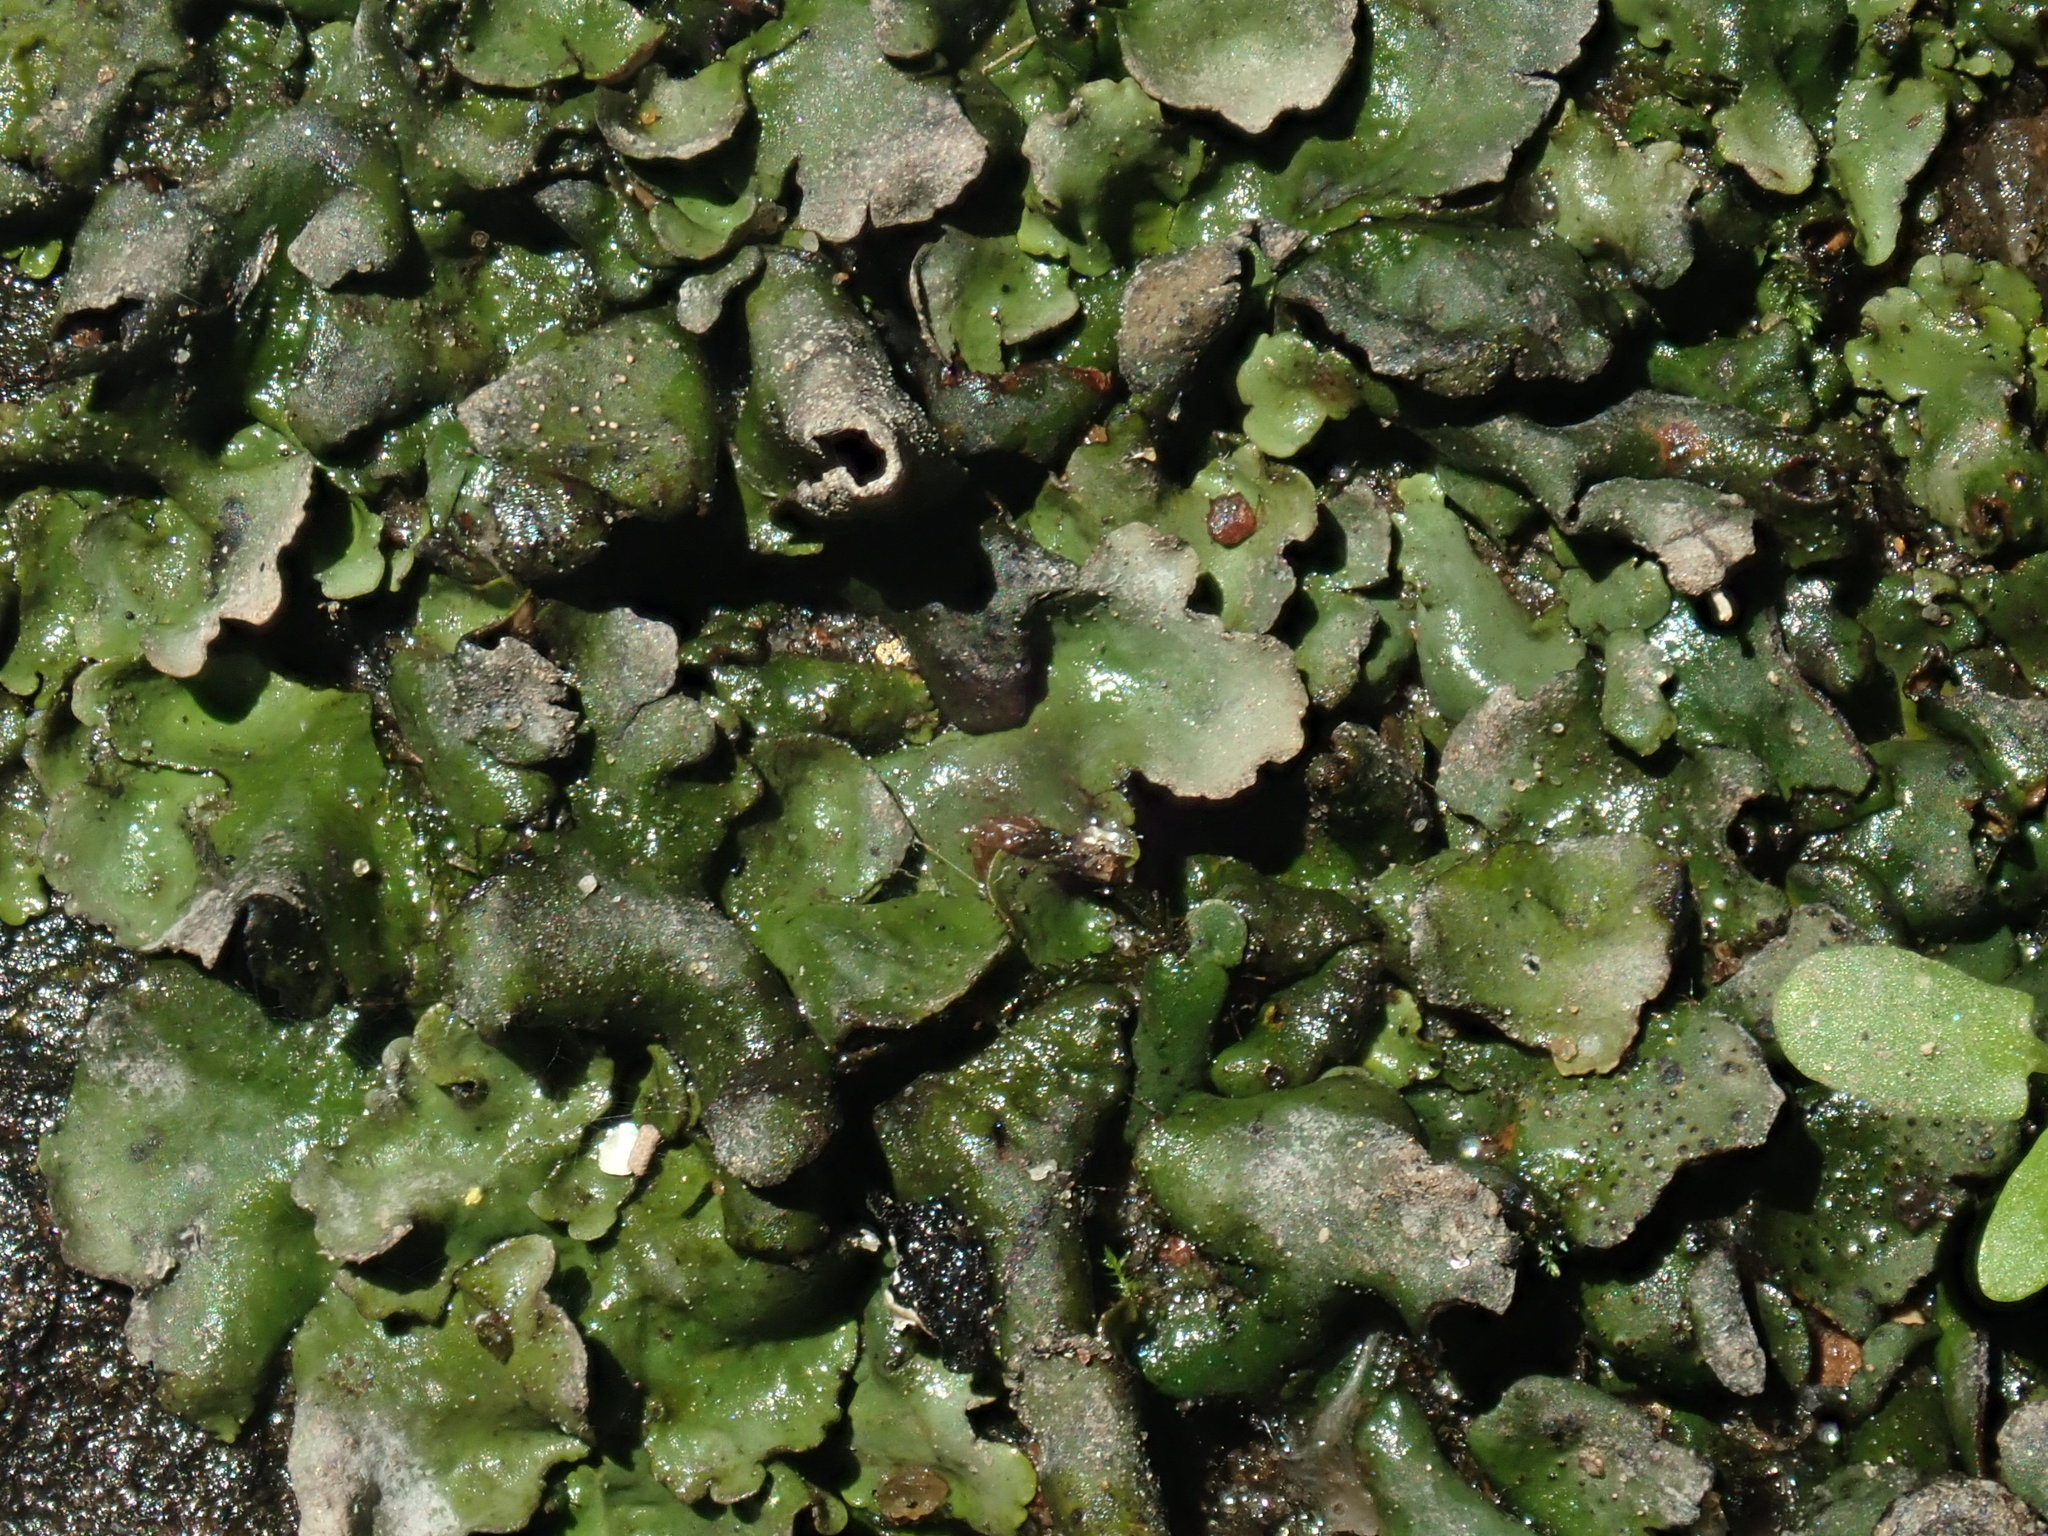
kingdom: Fungi
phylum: Ascomycota
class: Eurotiomycetes
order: Verrucariales
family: Verrucariaceae
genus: Dermatocarpon
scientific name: Dermatocarpon luridum
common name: Brook stippleback lichen
